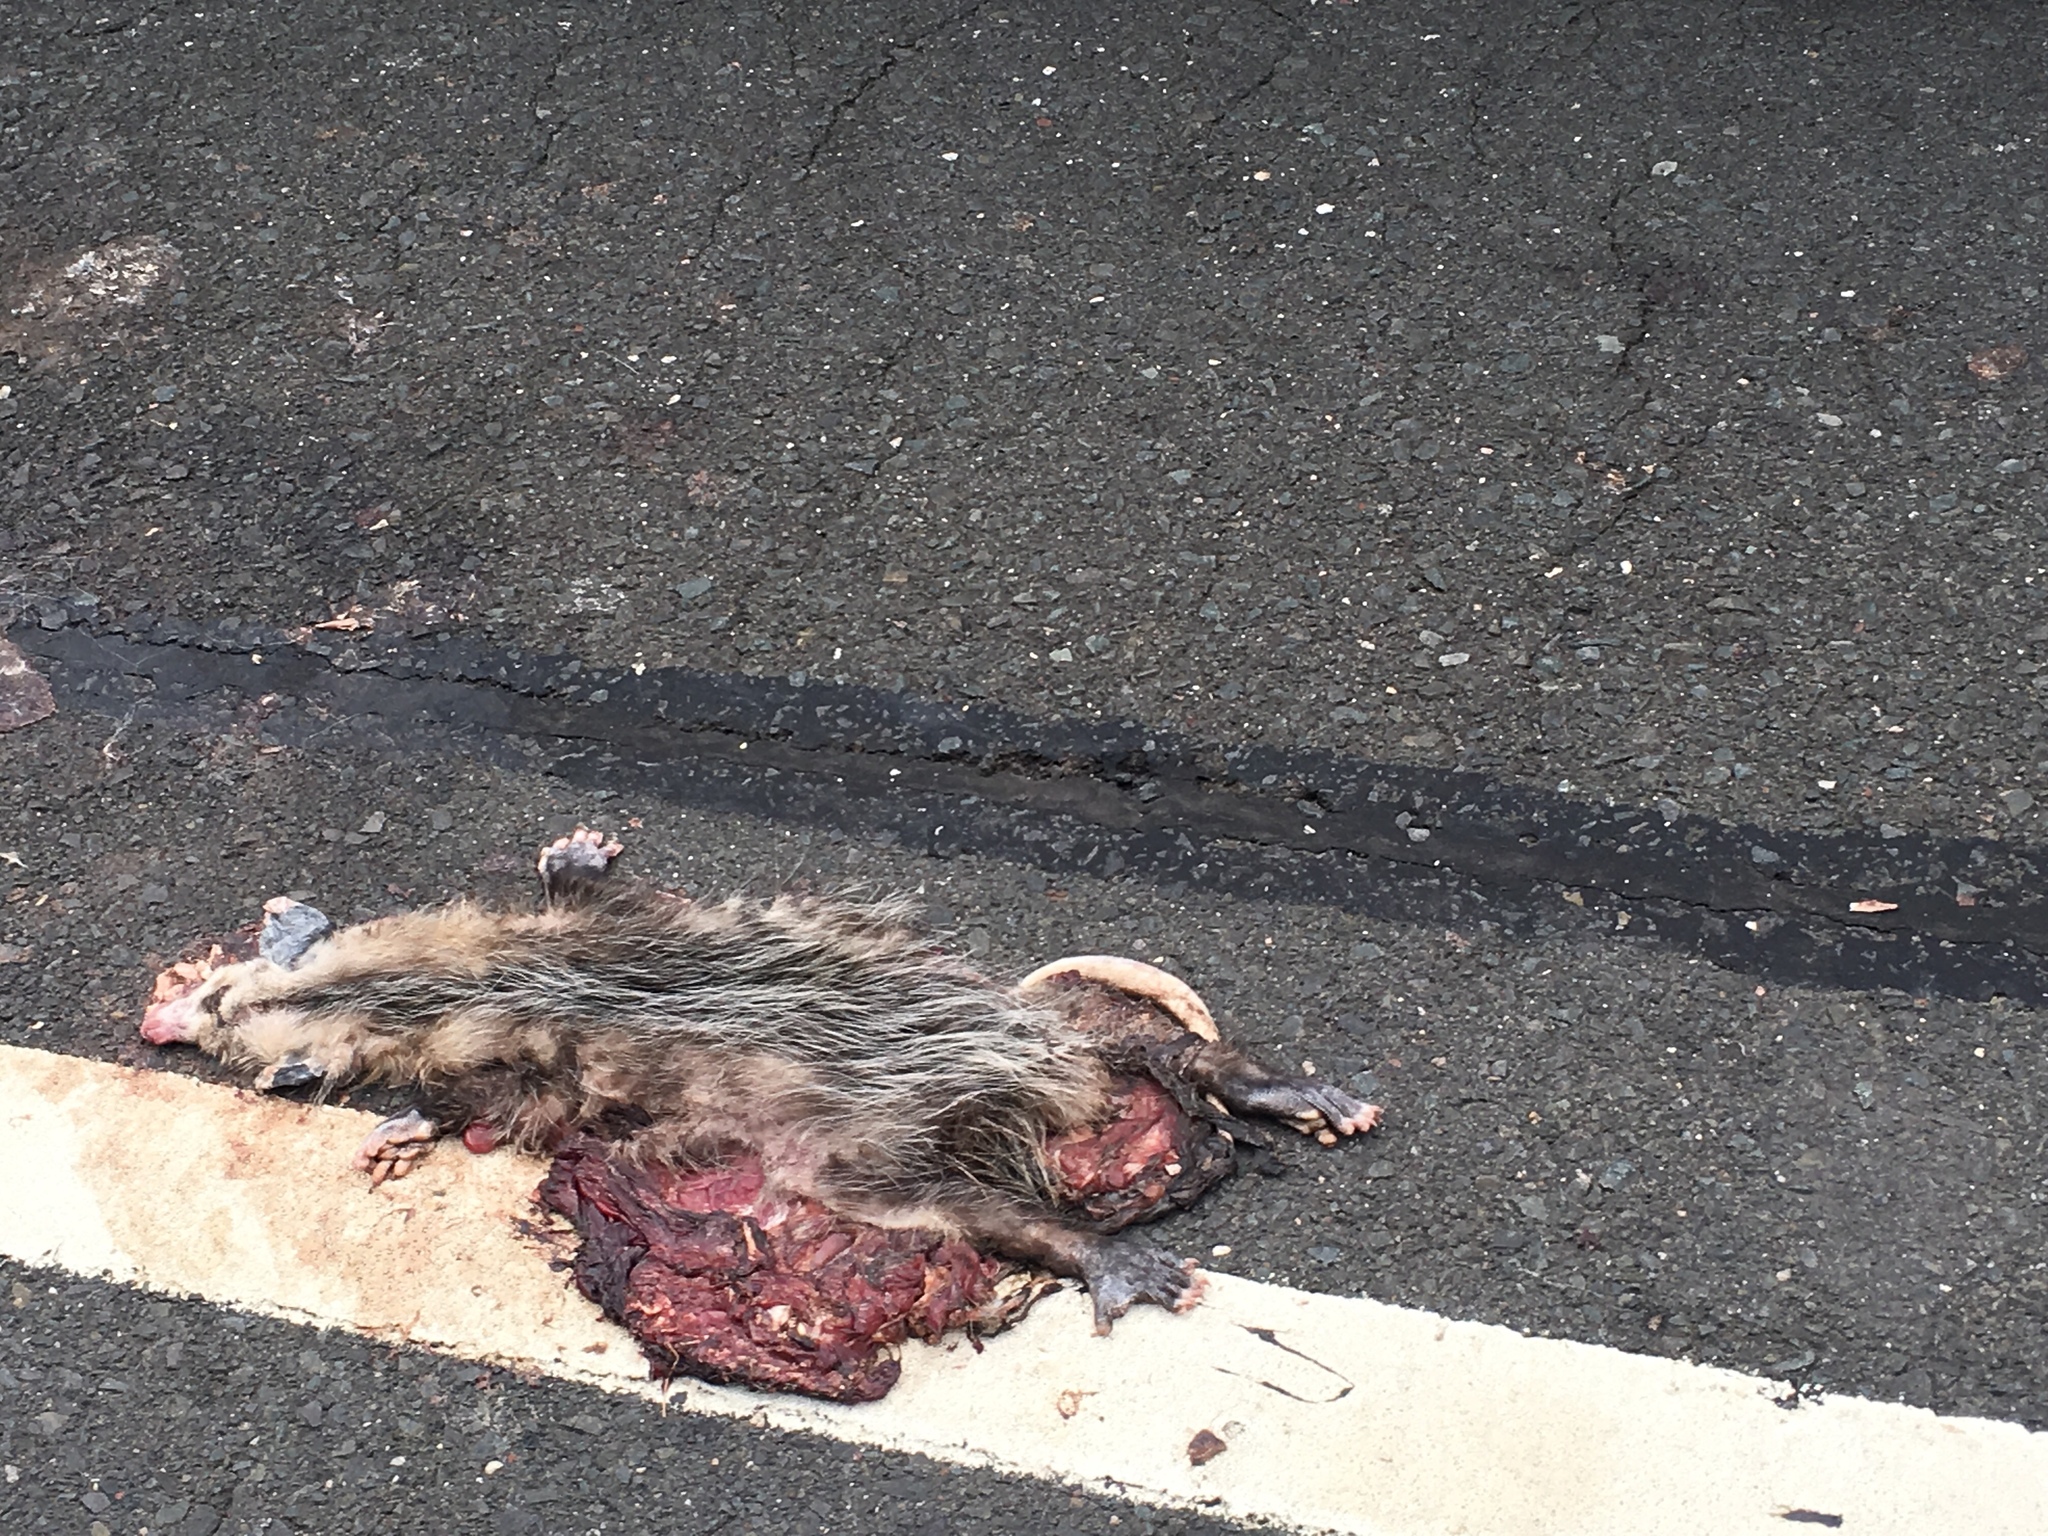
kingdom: Animalia
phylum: Chordata
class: Mammalia
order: Didelphimorphia
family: Didelphidae
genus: Didelphis
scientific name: Didelphis virginiana
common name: Virginia opossum
